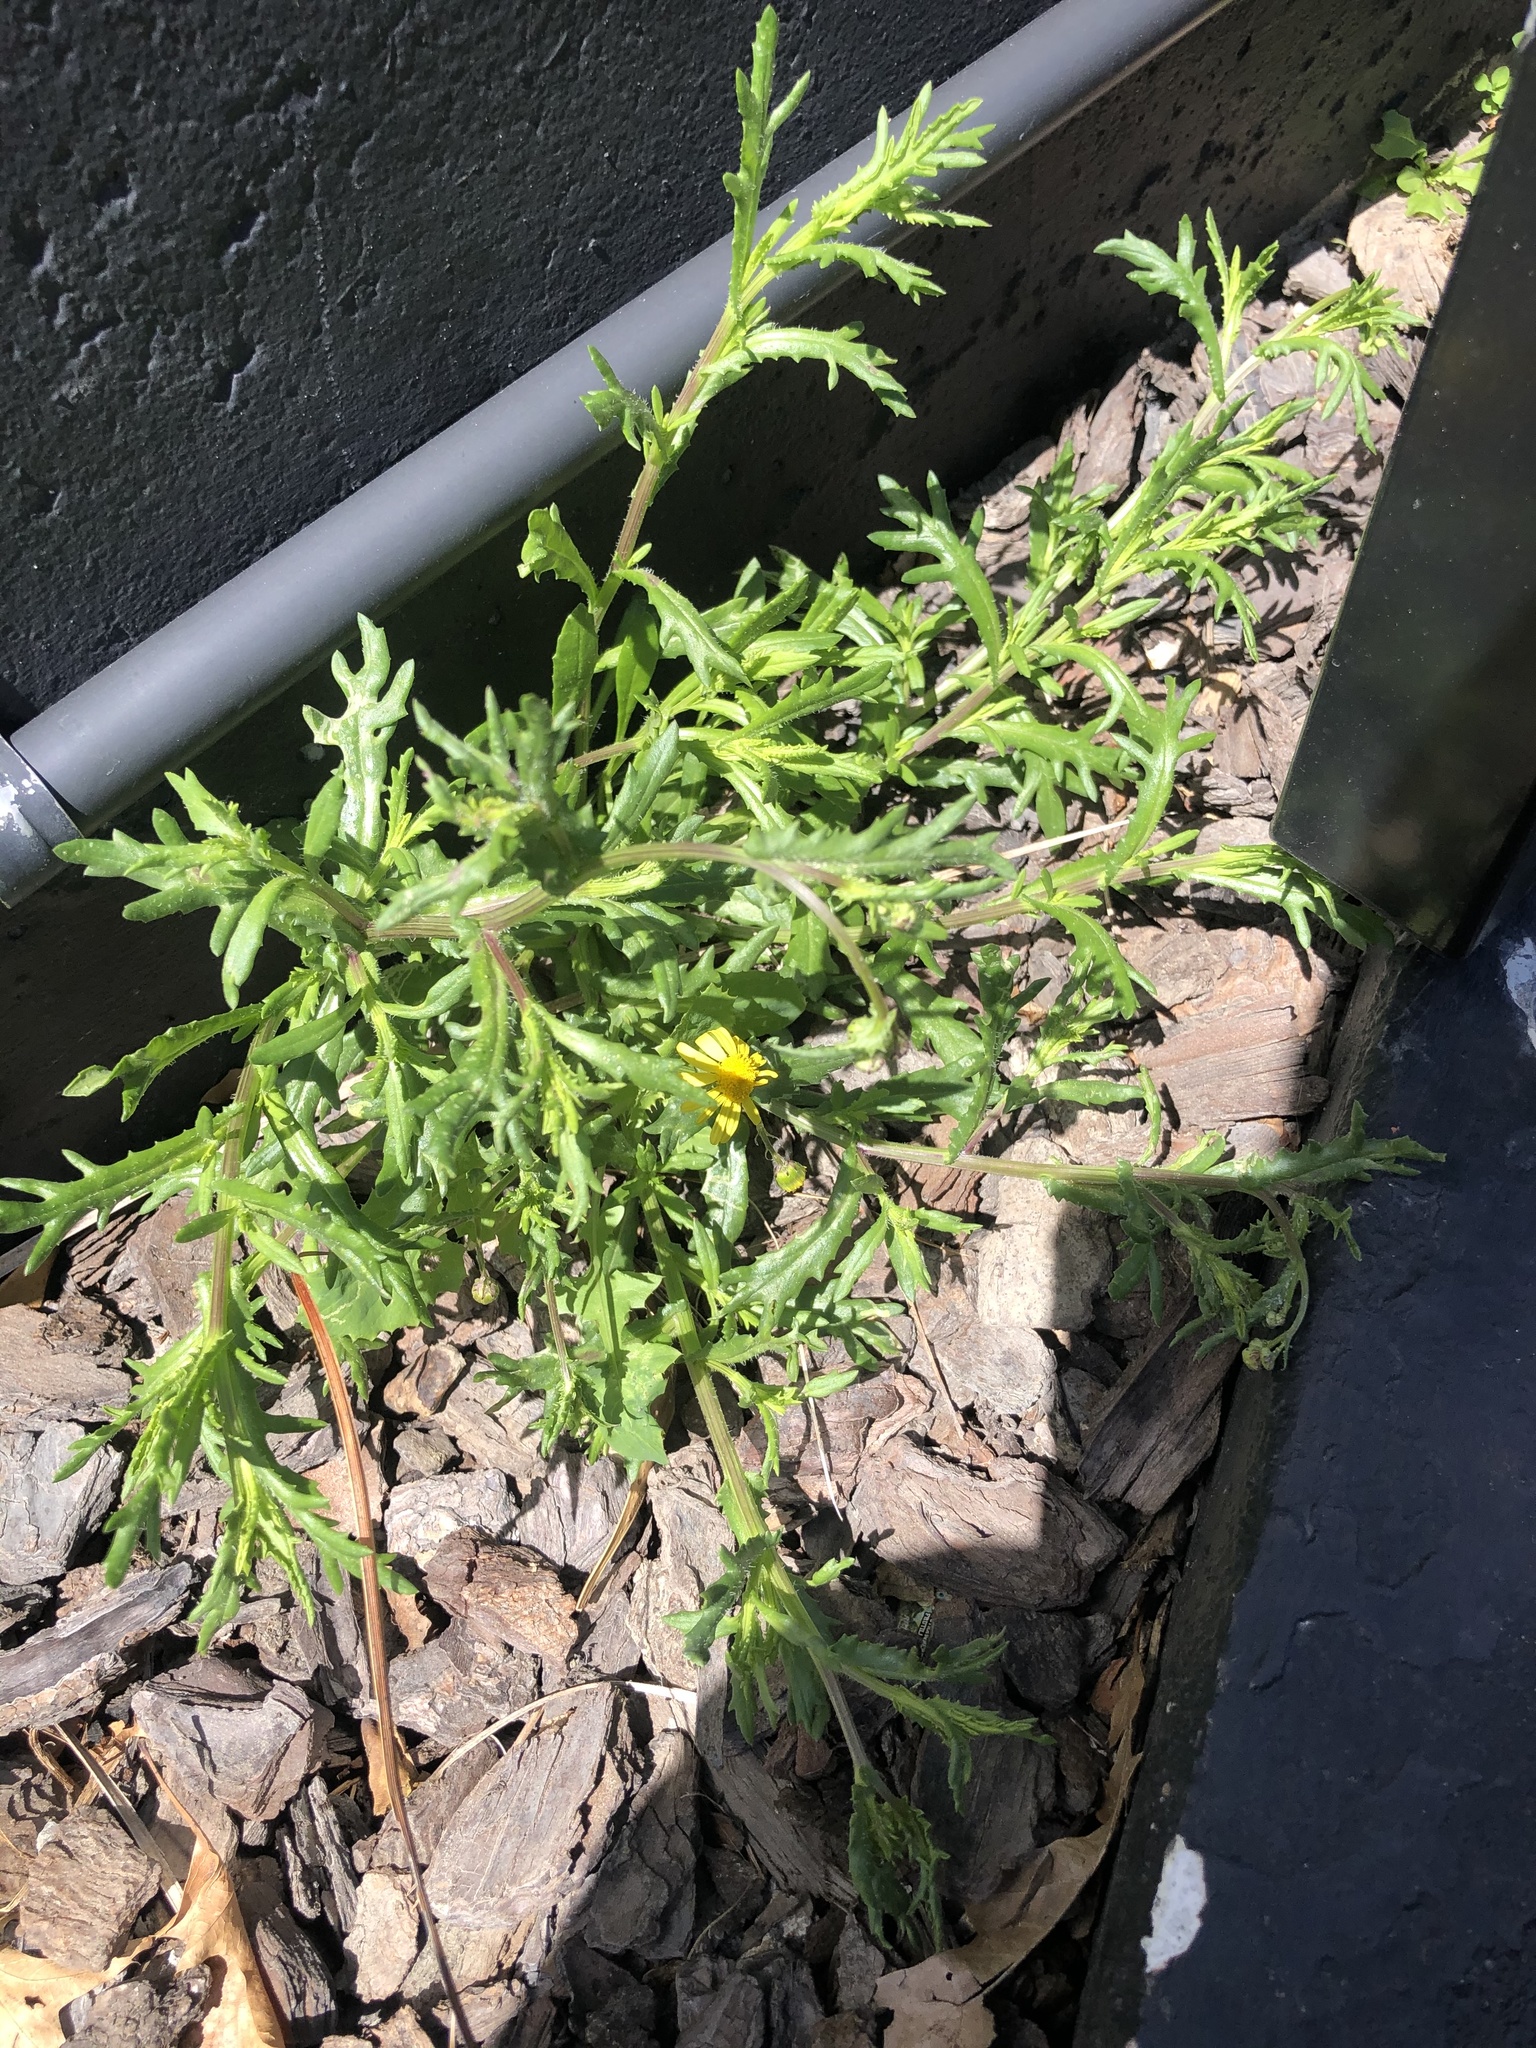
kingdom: Plantae
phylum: Tracheophyta
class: Magnoliopsida
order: Asterales
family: Asteraceae
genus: Senecio
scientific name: Senecio skirrhodon
